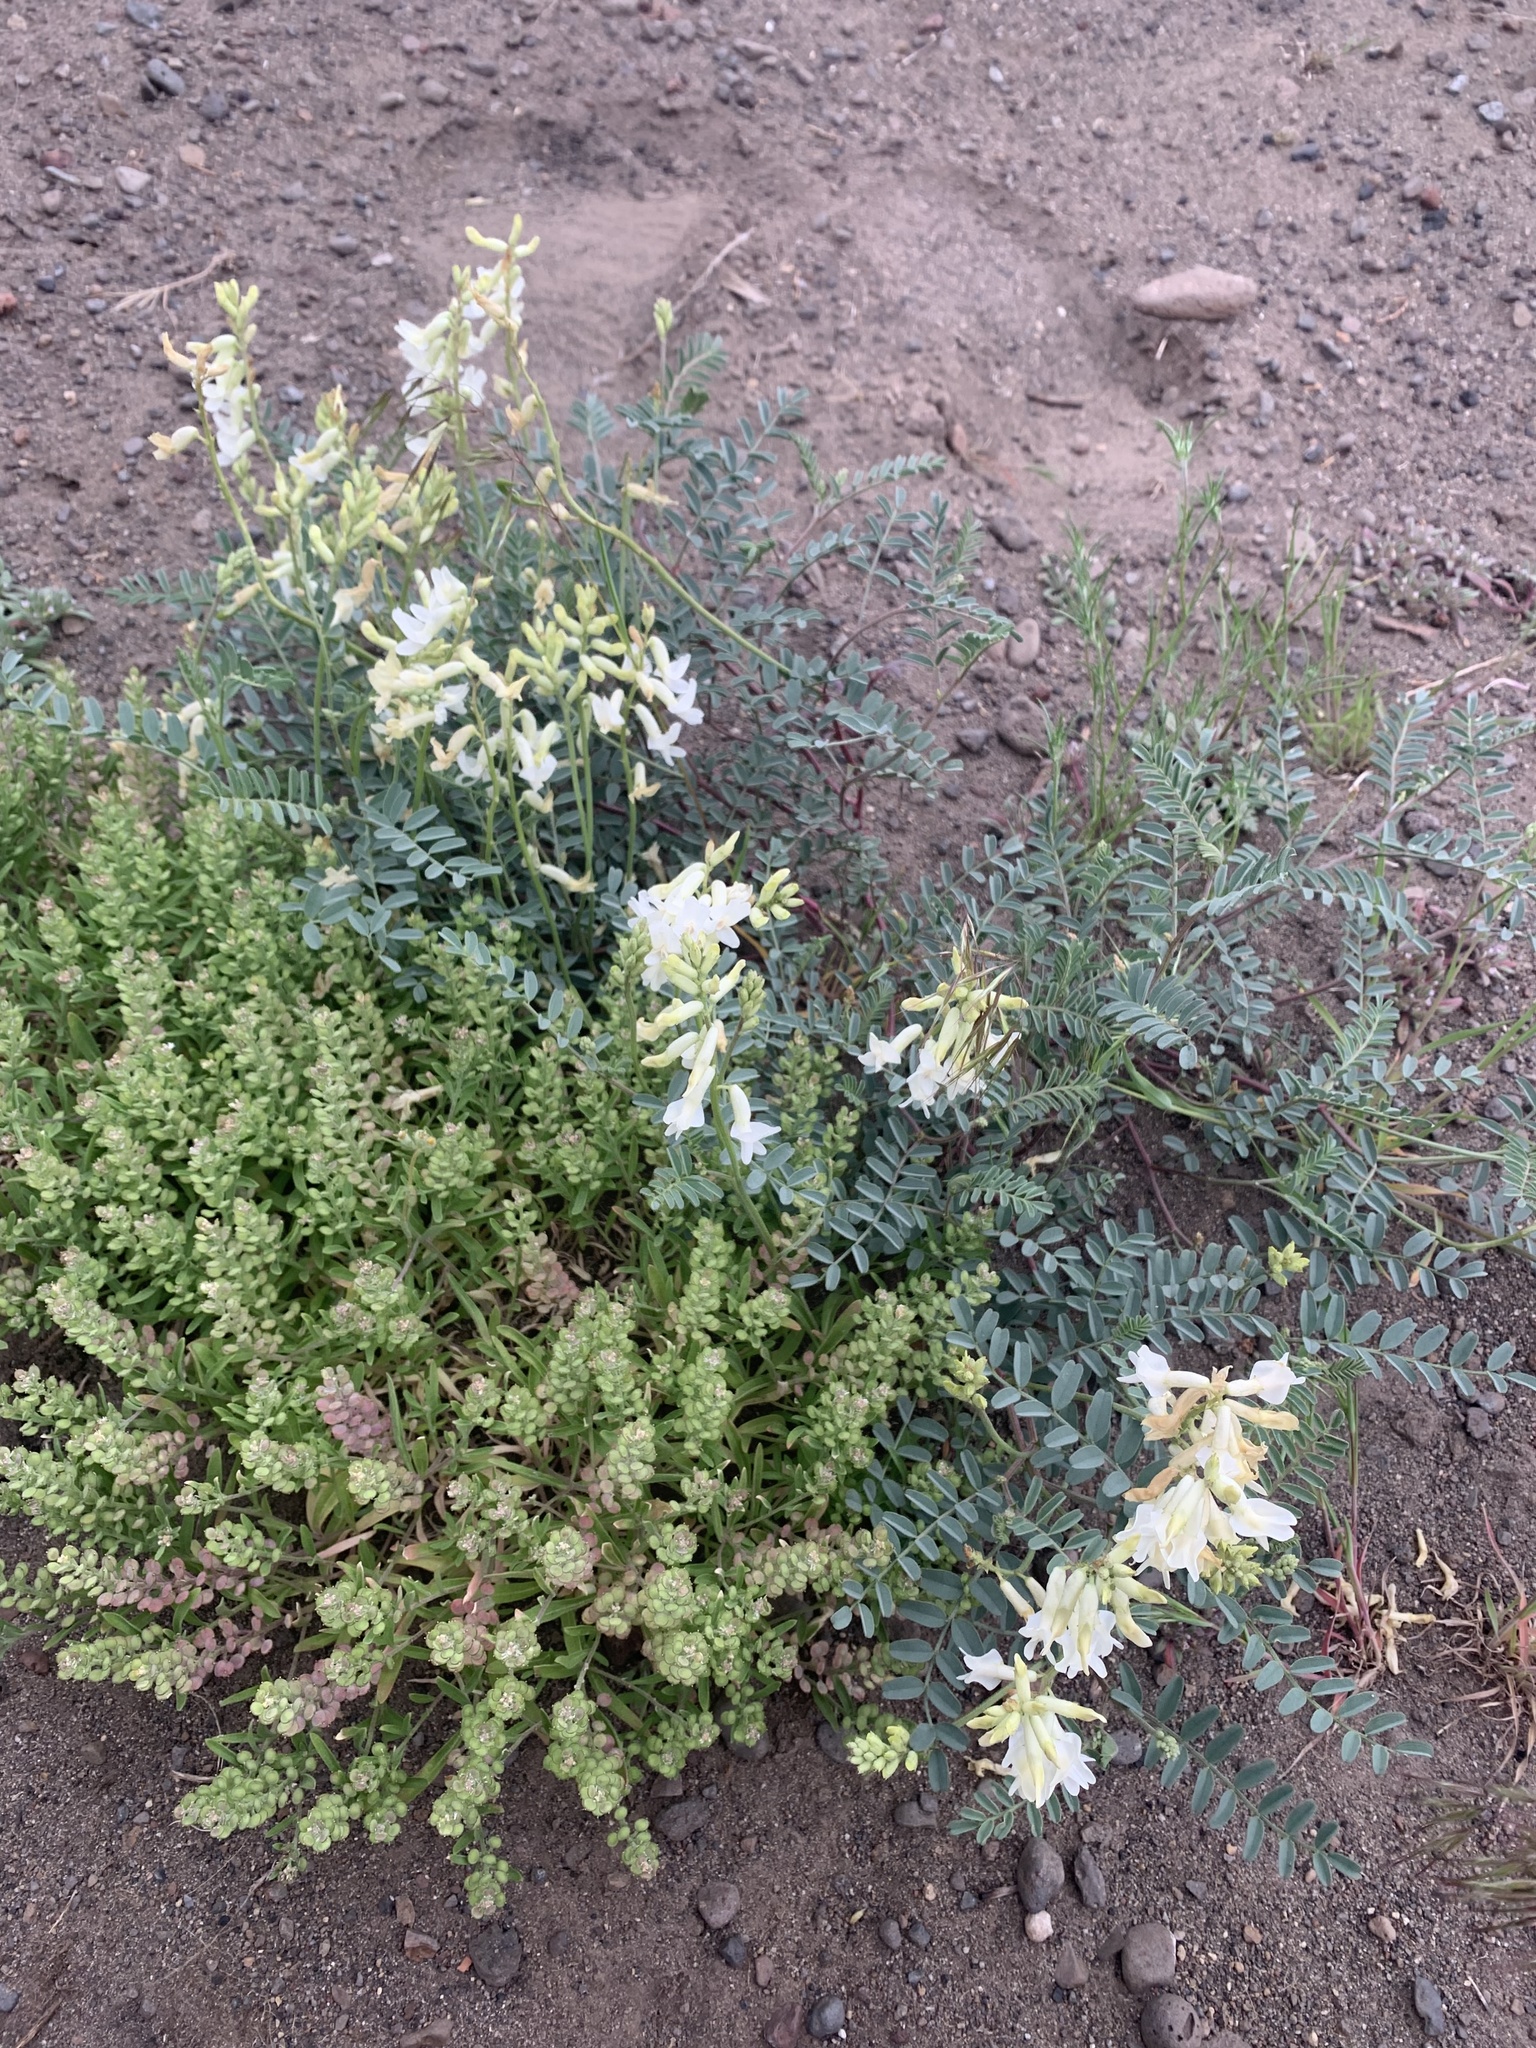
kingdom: Plantae
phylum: Tracheophyta
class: Magnoliopsida
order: Fabales
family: Fabaceae
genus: Astragalus
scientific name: Astragalus curvicarpus
